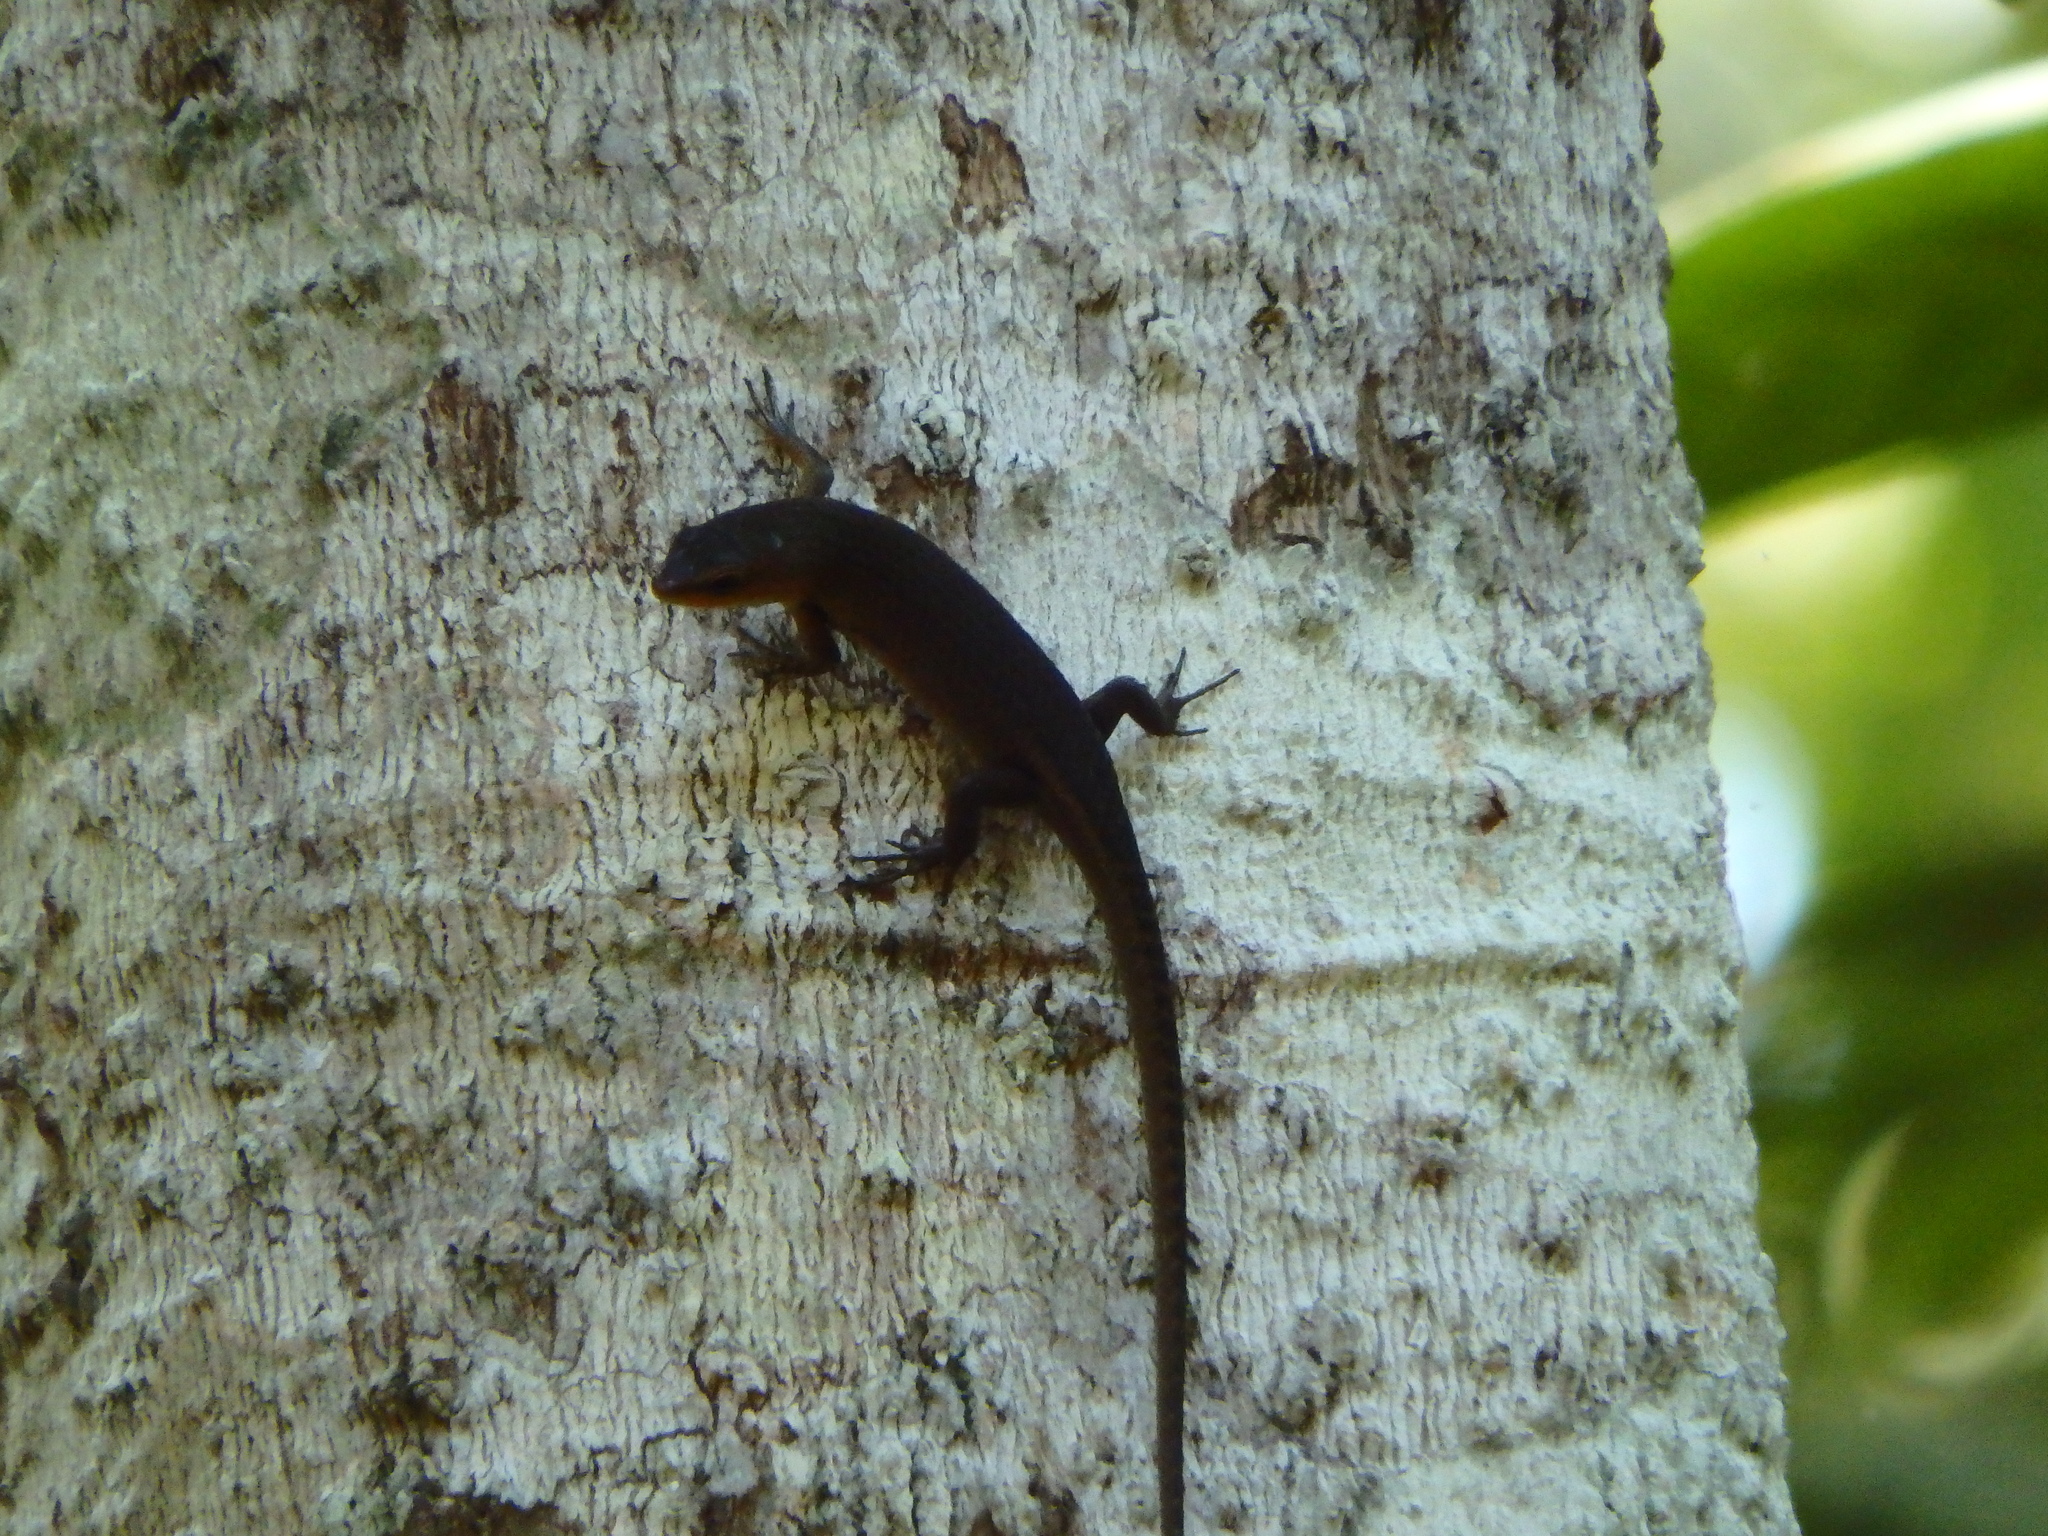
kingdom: Animalia
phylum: Chordata
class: Squamata
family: Scincidae
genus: Eutropis
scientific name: Eutropis rugifera
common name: Rough-scaled sun skink
